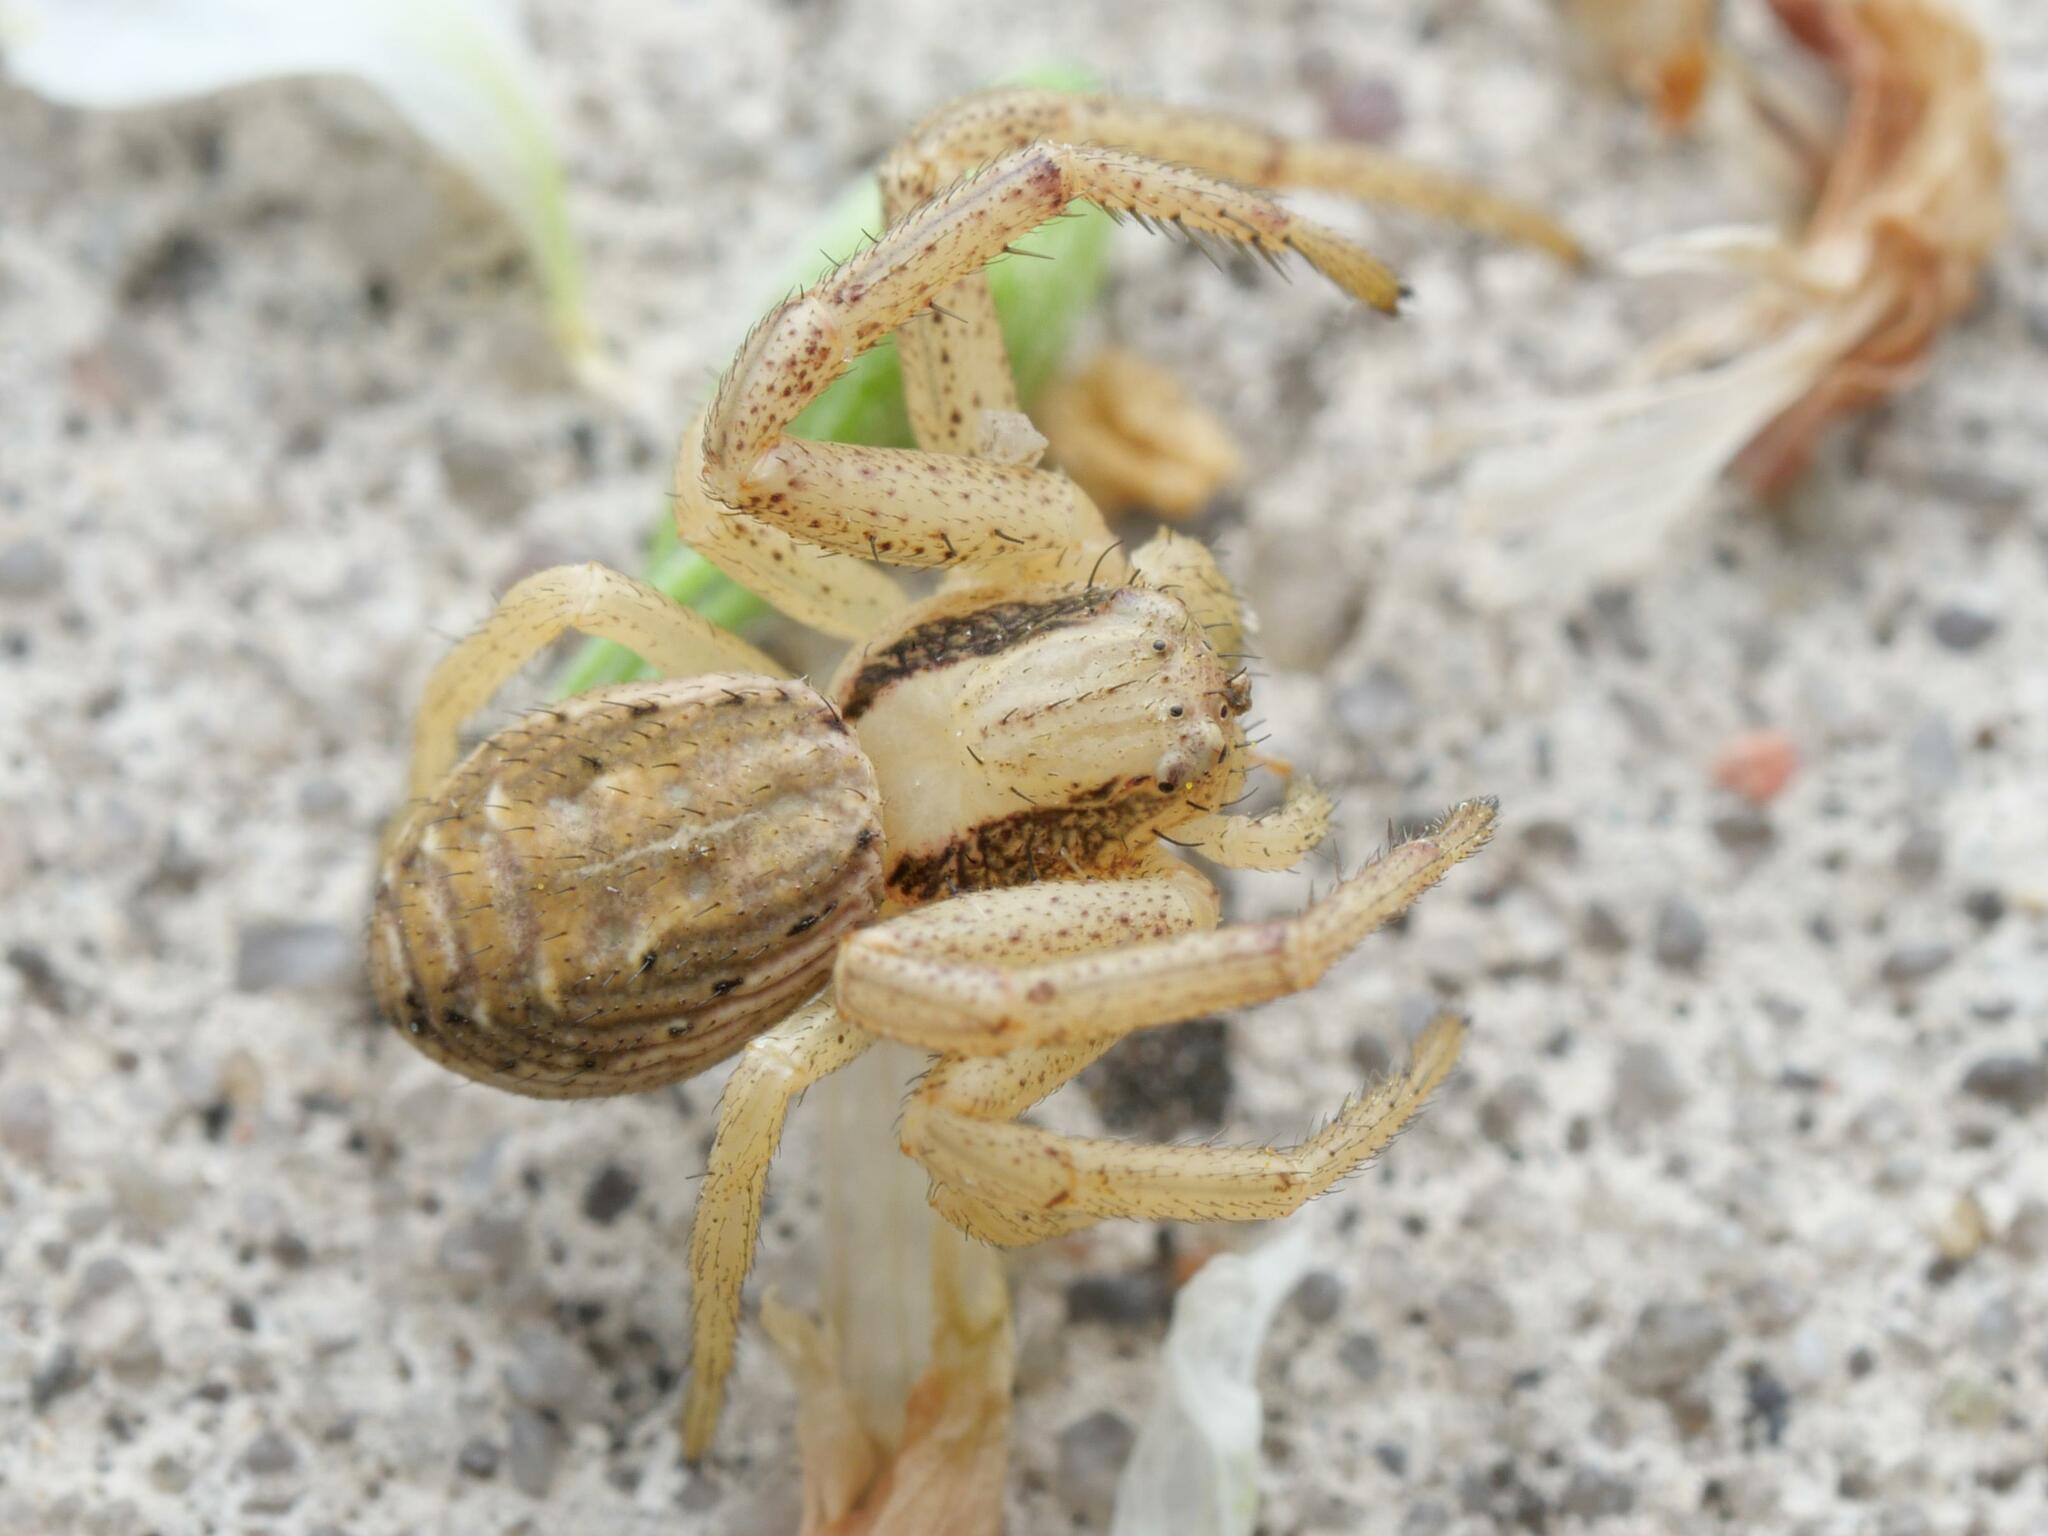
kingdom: Animalia
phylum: Arthropoda
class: Arachnida
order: Araneae
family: Thomisidae
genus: Spiracme
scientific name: Spiracme striatipes
